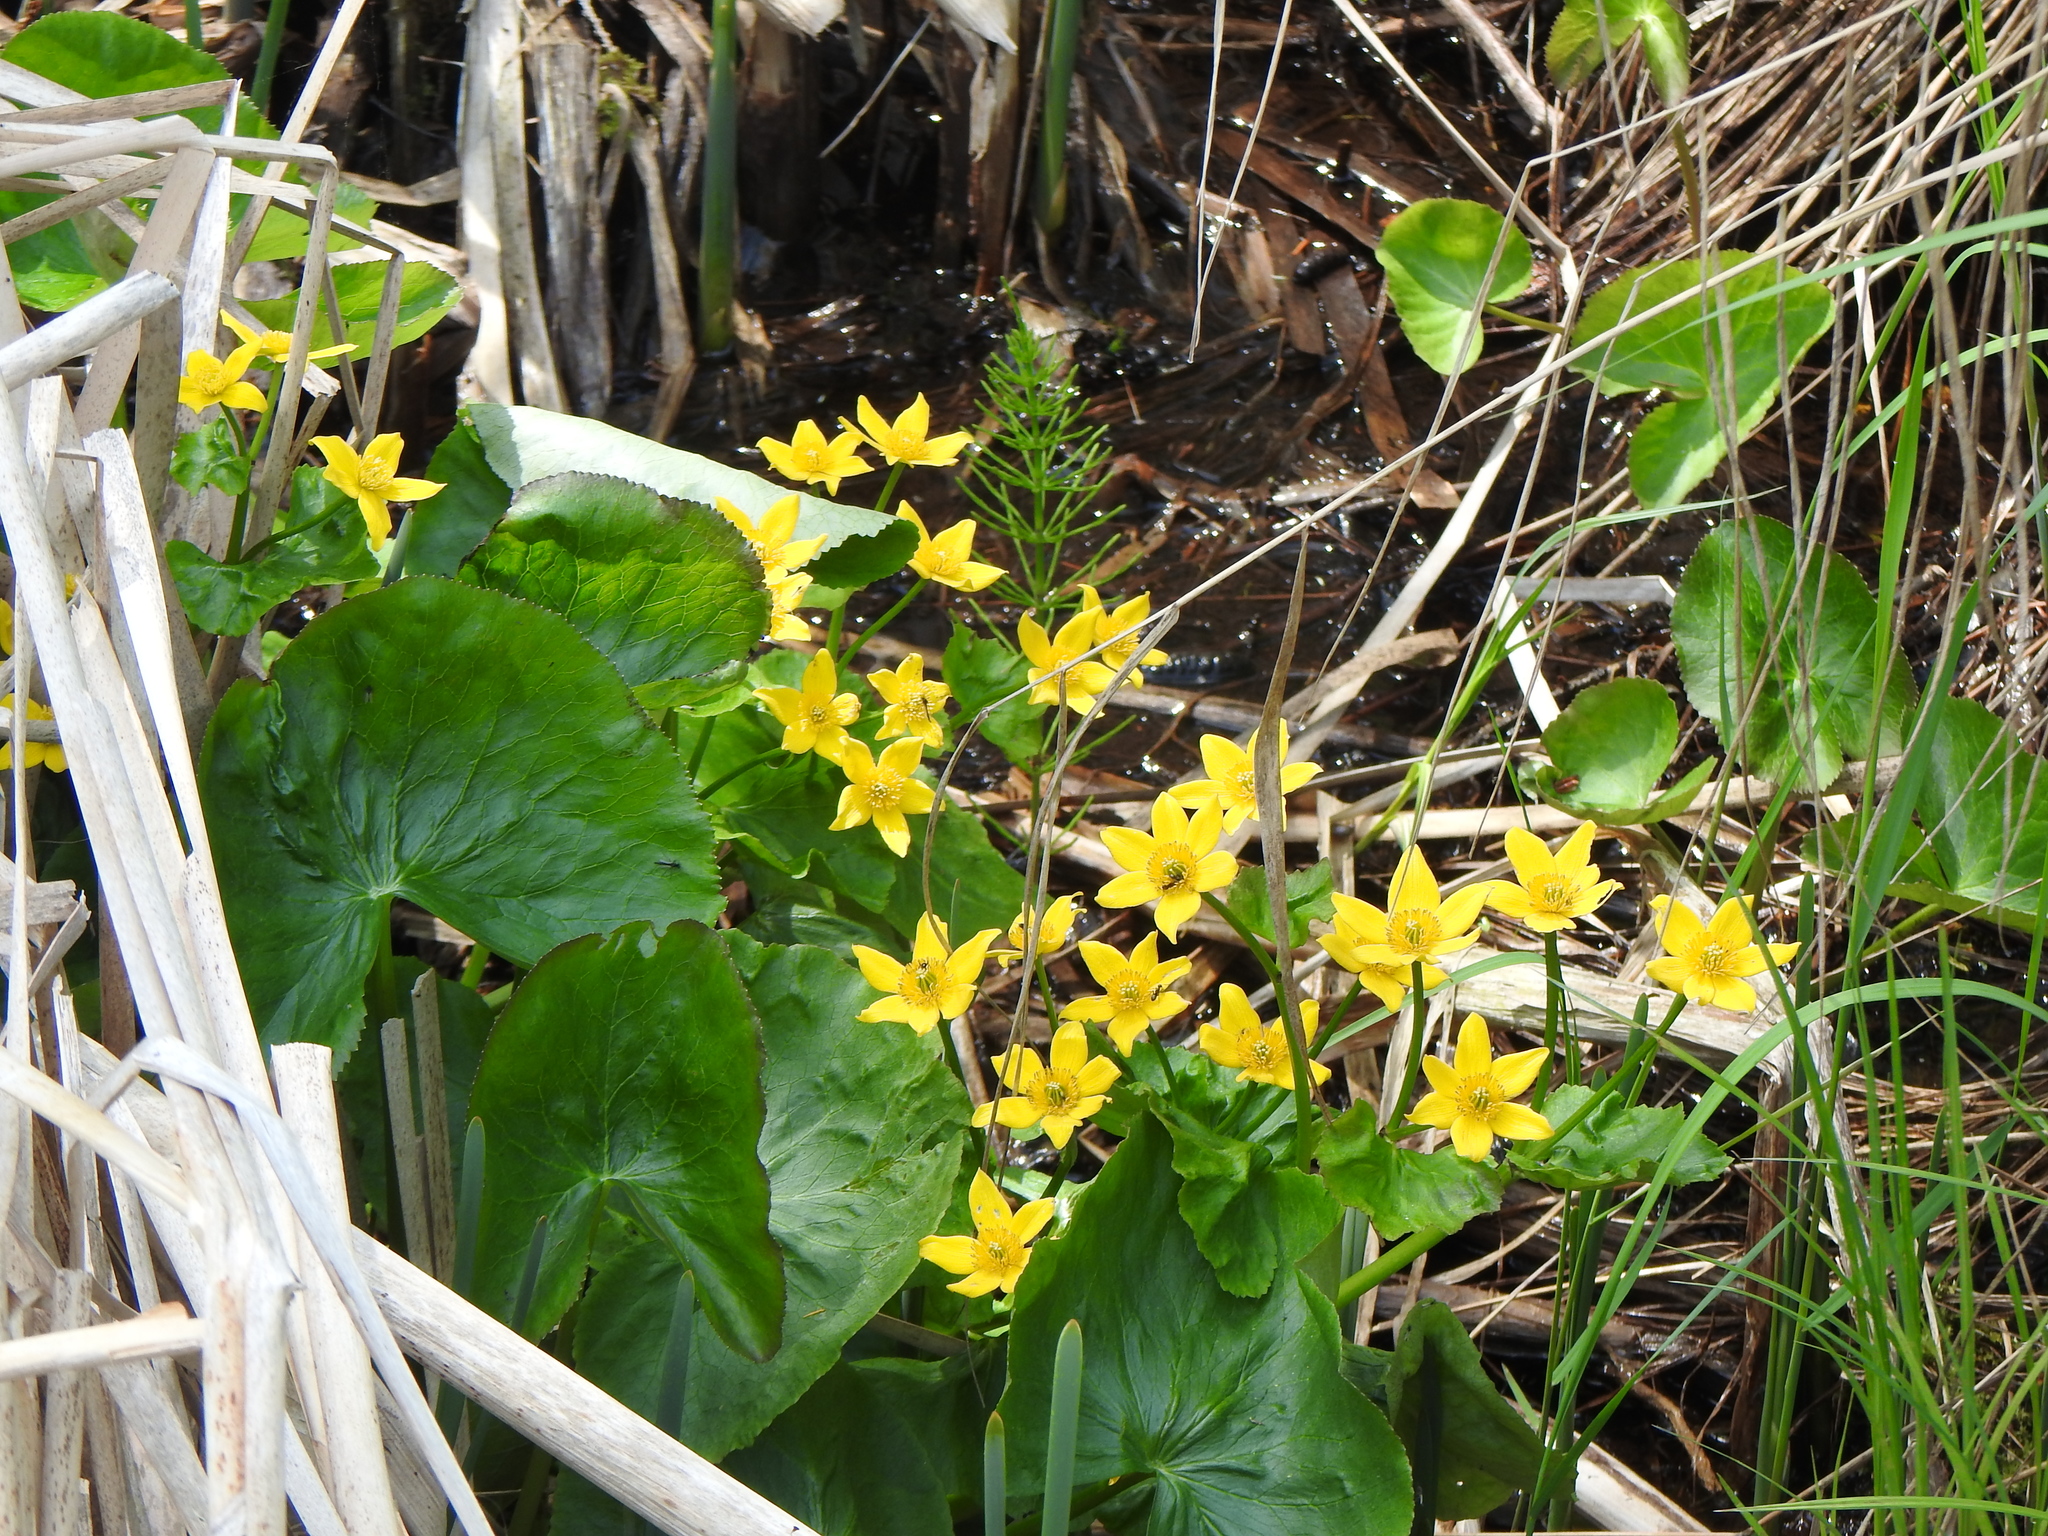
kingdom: Plantae
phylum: Tracheophyta
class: Magnoliopsida
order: Ranunculales
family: Ranunculaceae
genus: Caltha
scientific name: Caltha palustris
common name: Marsh marigold
